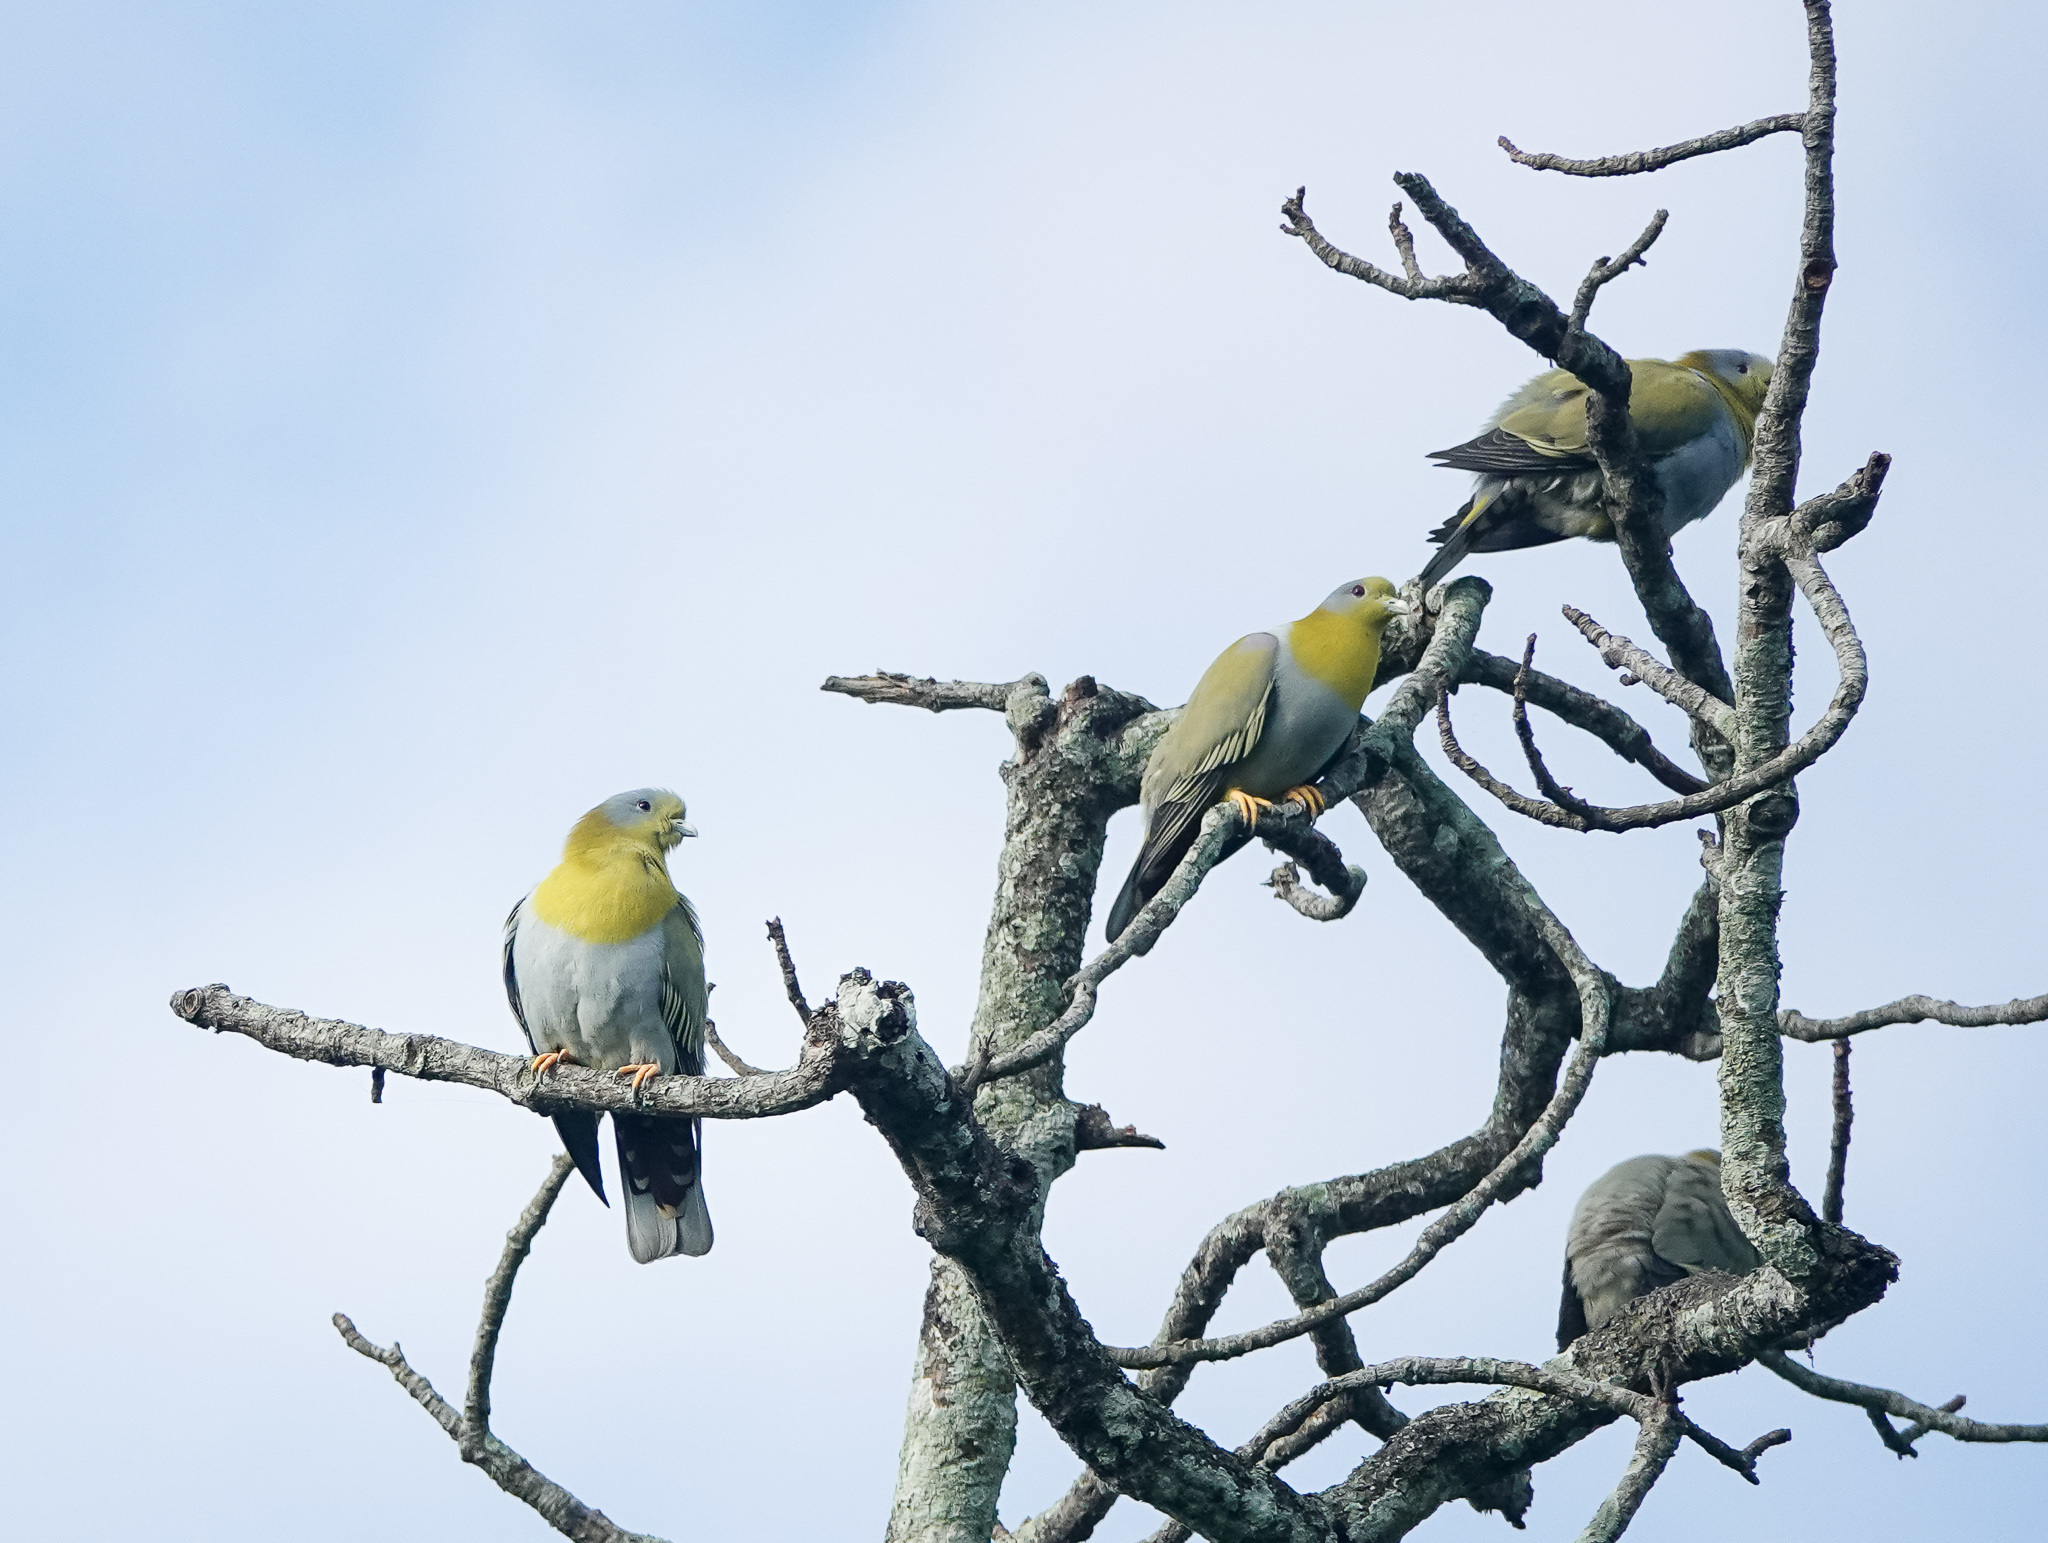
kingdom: Animalia
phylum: Chordata
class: Aves
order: Columbiformes
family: Columbidae
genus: Treron
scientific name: Treron phoenicopterus
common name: Yellow-footed green pigeon
